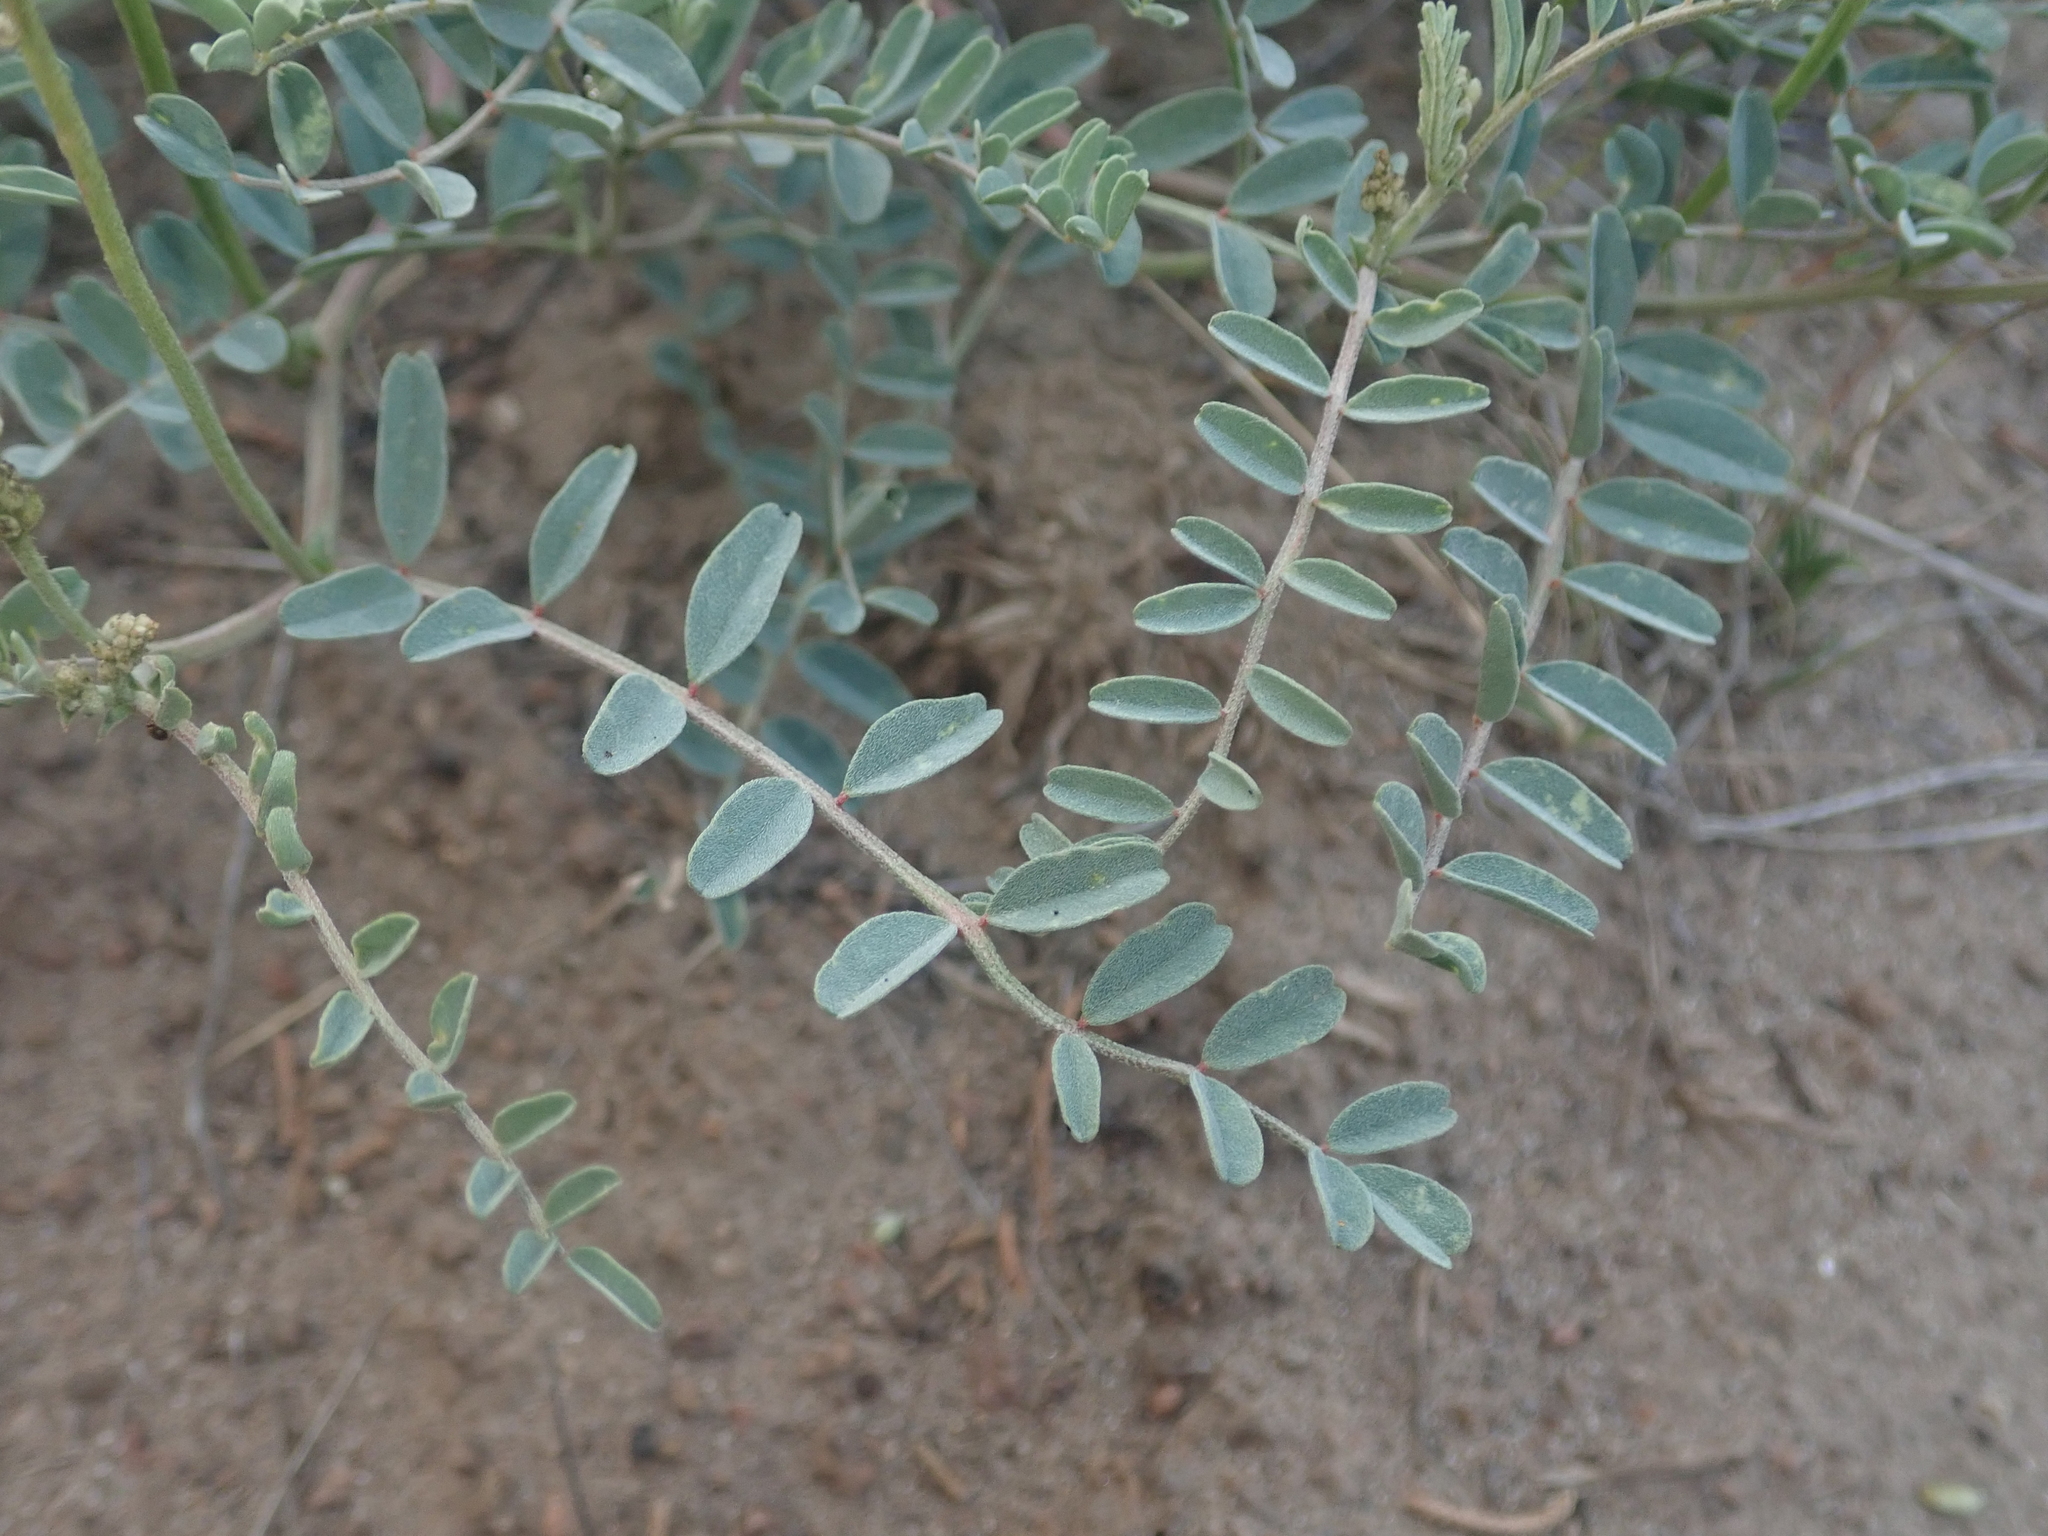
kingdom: Plantae
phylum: Tracheophyta
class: Magnoliopsida
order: Fabales
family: Fabaceae
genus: Astragalus
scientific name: Astragalus curvicarpus
